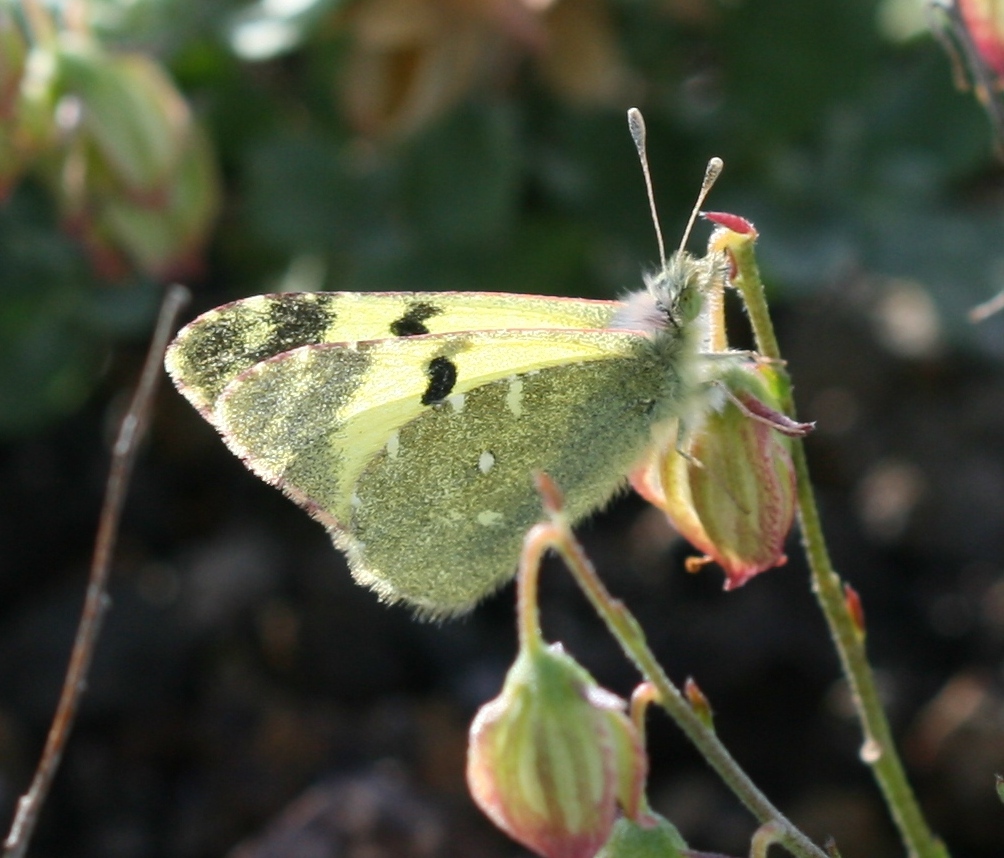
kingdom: Animalia
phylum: Arthropoda
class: Insecta
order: Lepidoptera
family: Pieridae
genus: Elphinstonia
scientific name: Elphinstonia charlonia
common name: Greenish black-tip
